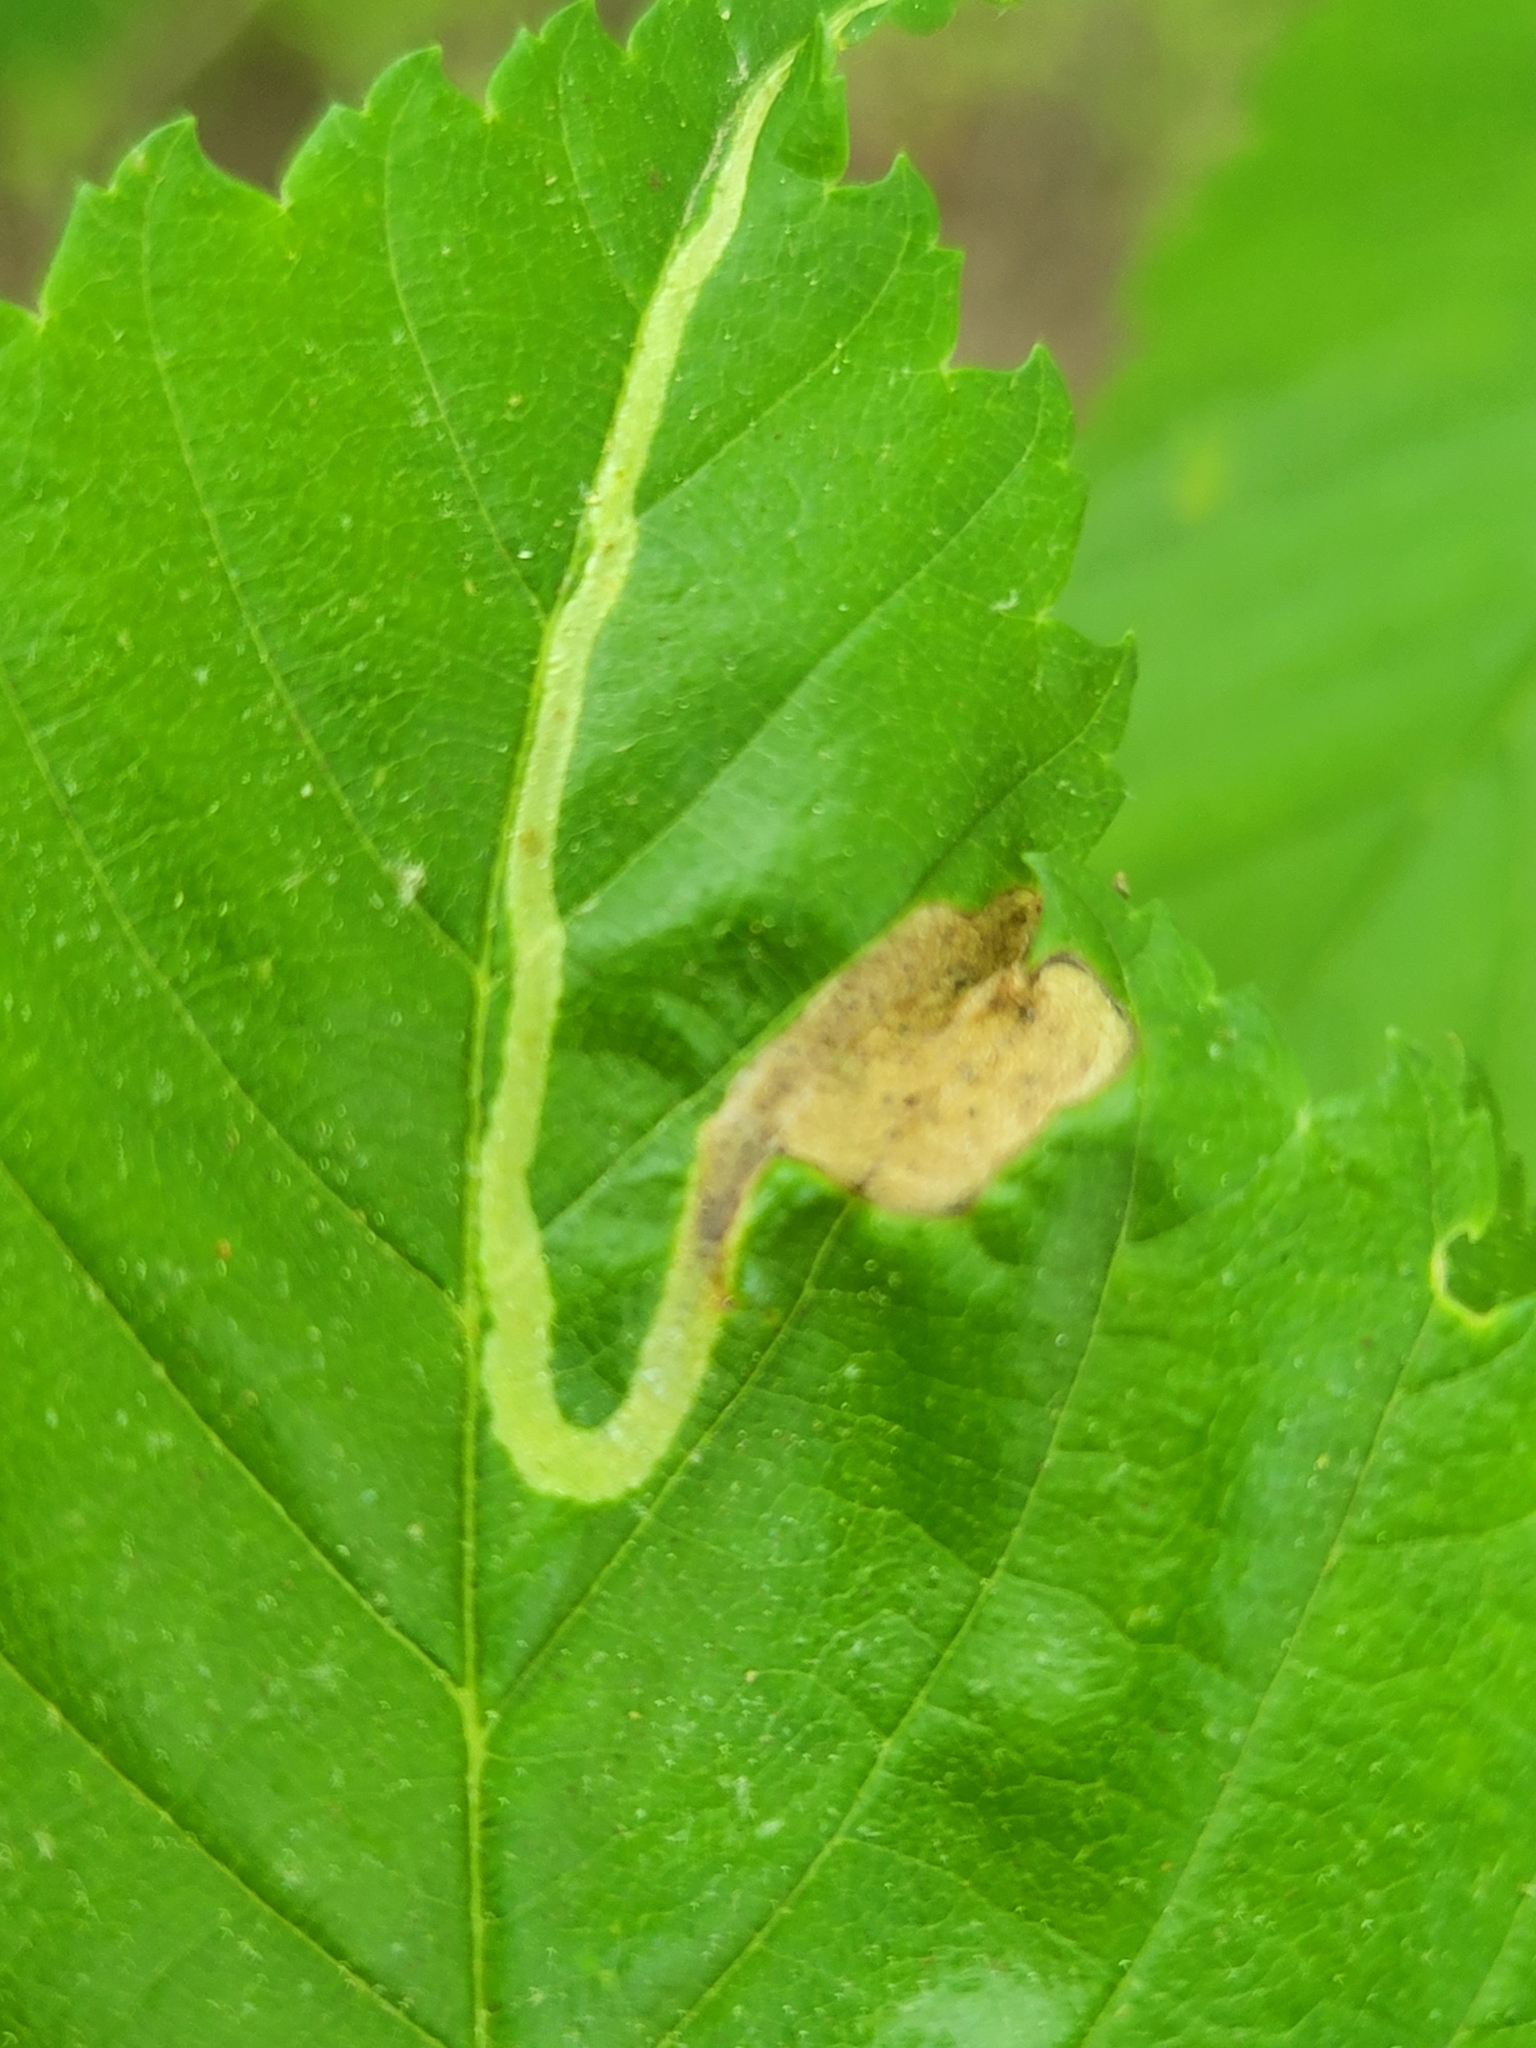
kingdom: Animalia
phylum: Arthropoda
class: Insecta
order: Diptera
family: Agromyzidae
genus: Agromyza
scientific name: Agromyza aristata
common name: Elm agromyzid leafminer
